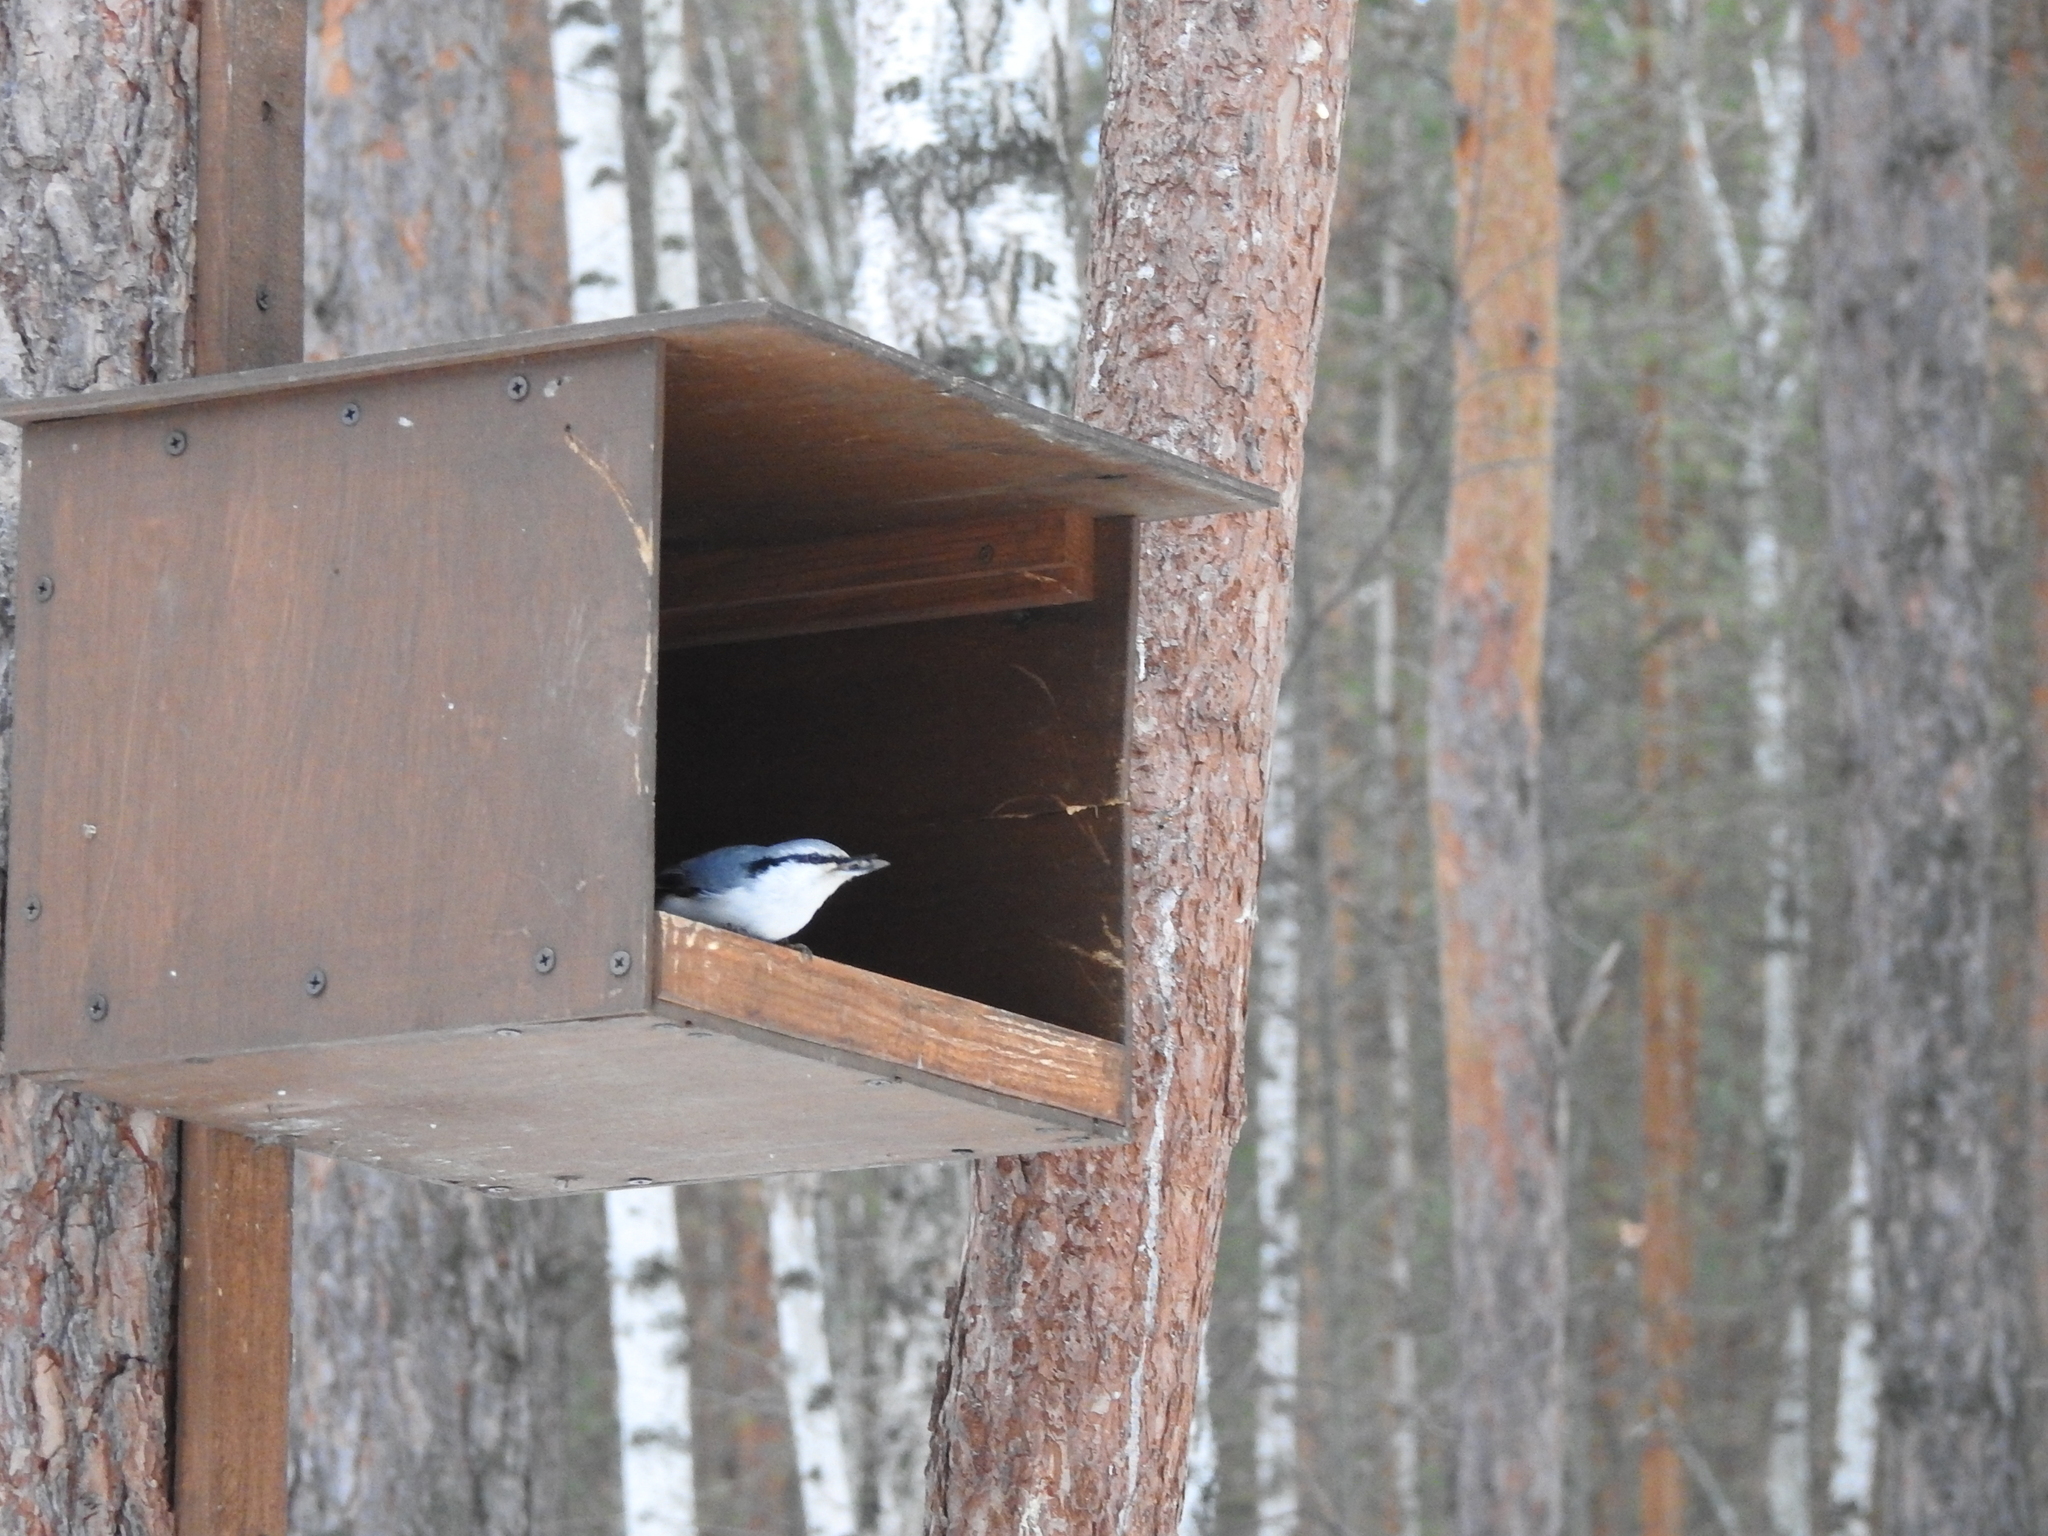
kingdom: Animalia
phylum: Chordata
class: Aves
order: Passeriformes
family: Sittidae
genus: Sitta
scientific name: Sitta europaea
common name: Eurasian nuthatch
